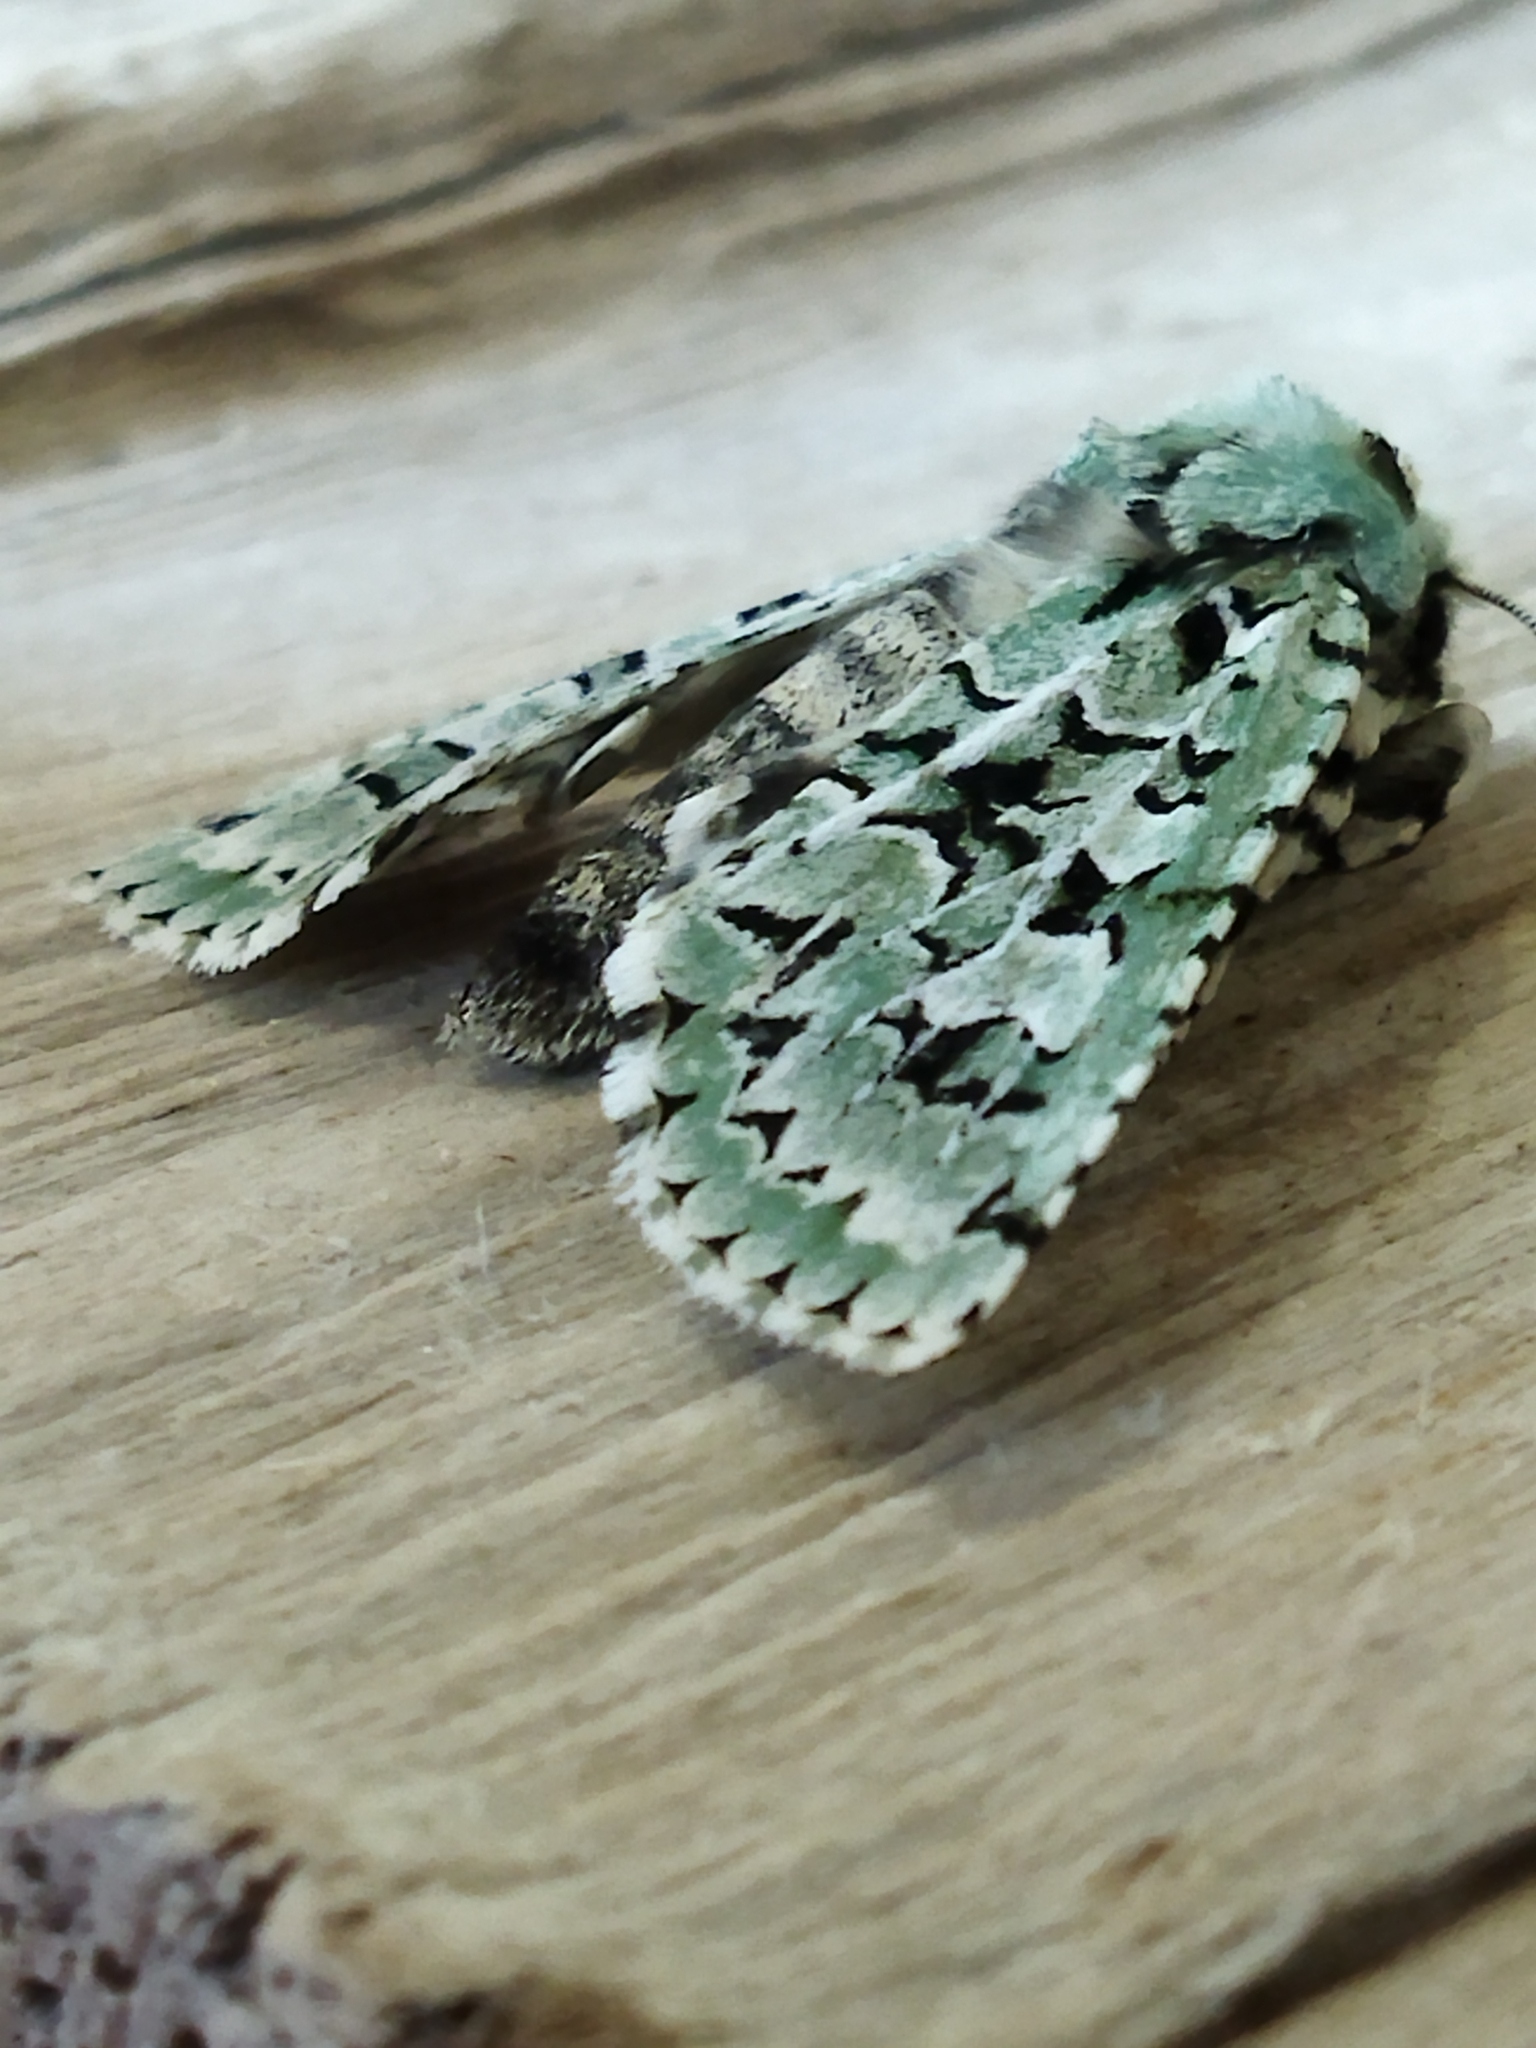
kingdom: Animalia
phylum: Arthropoda
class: Insecta
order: Lepidoptera
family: Noctuidae
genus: Griposia
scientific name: Griposia aprilina
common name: Merveille du jour
